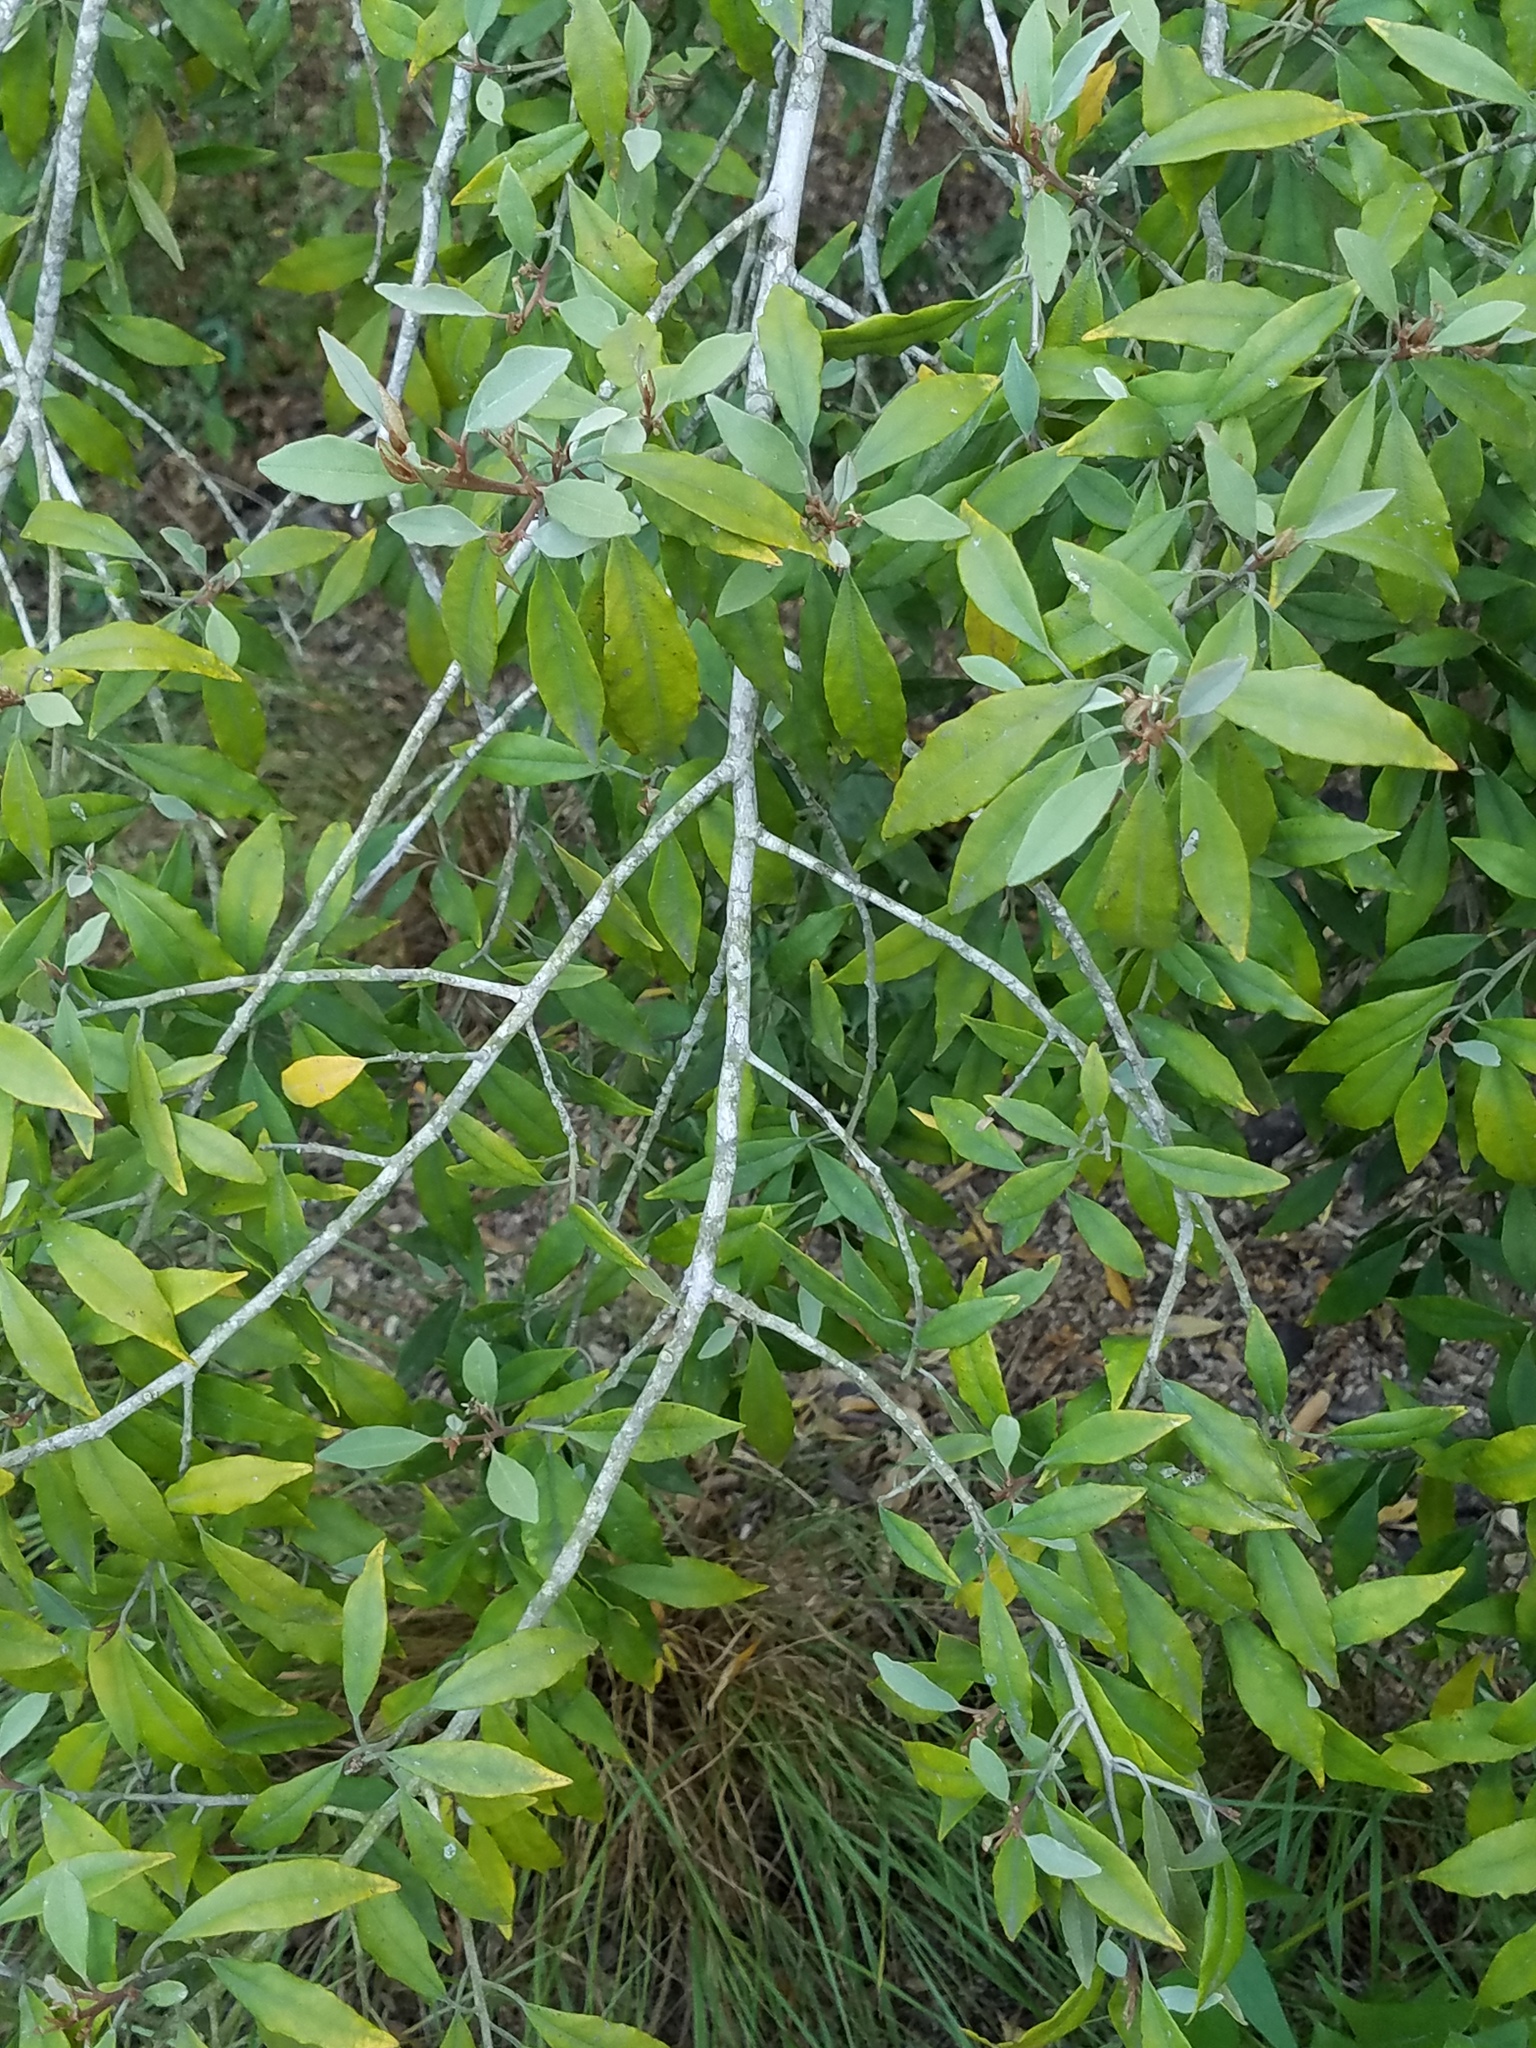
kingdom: Plantae
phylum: Tracheophyta
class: Magnoliopsida
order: Brassicales
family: Capparaceae
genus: Quadrella
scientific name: Quadrella incana
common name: Hoary caper
